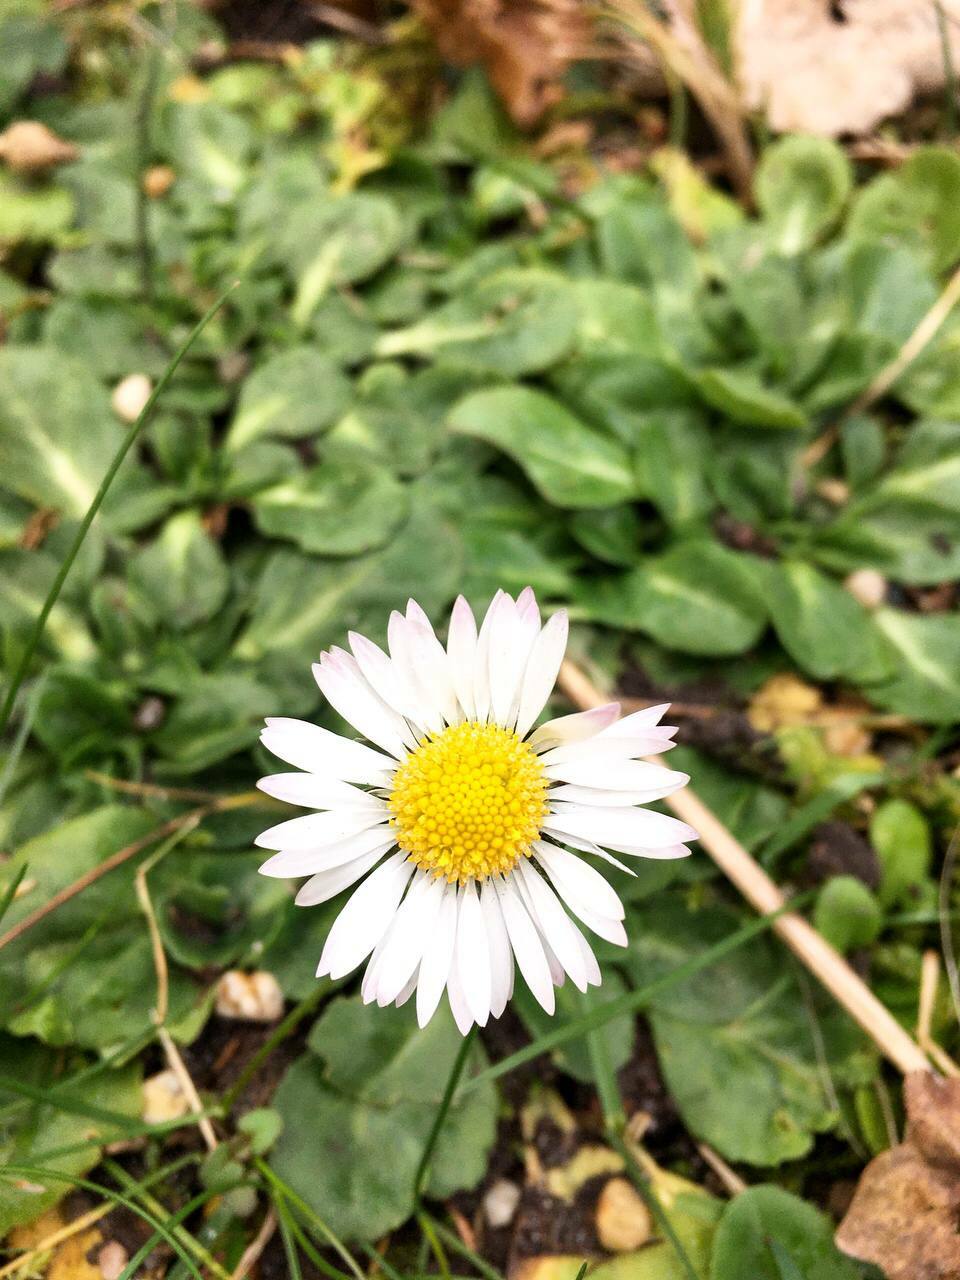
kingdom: Plantae
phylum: Tracheophyta
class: Magnoliopsida
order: Asterales
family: Asteraceae
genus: Bellis
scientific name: Bellis perennis
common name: Lawndaisy
